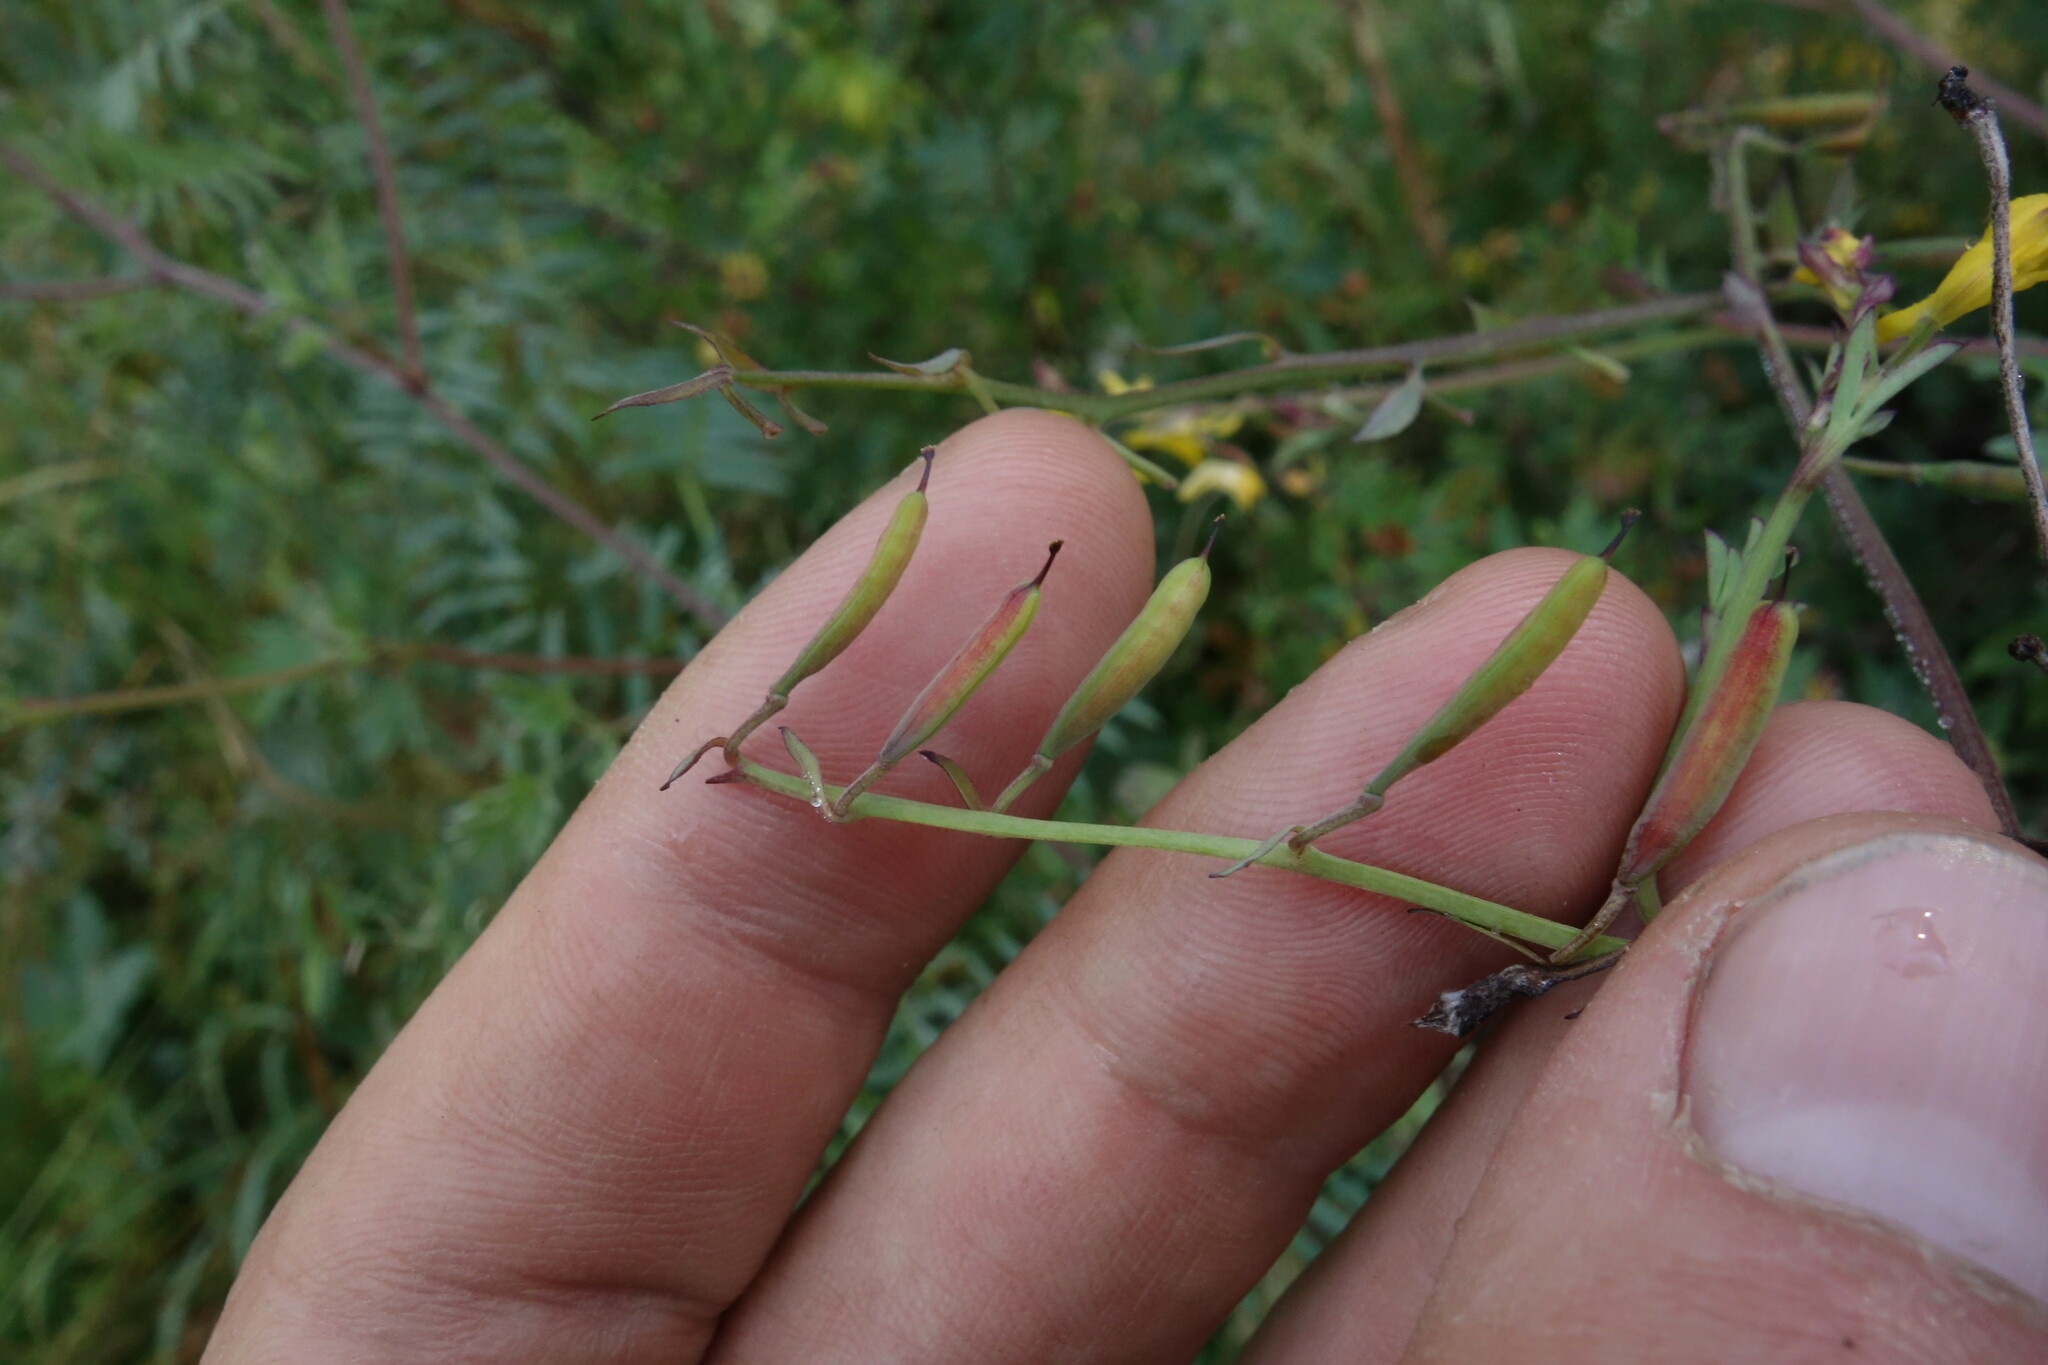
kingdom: Plantae
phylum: Tracheophyta
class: Magnoliopsida
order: Ranunculales
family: Papaveraceae
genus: Corydalis
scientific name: Corydalis impatiens
